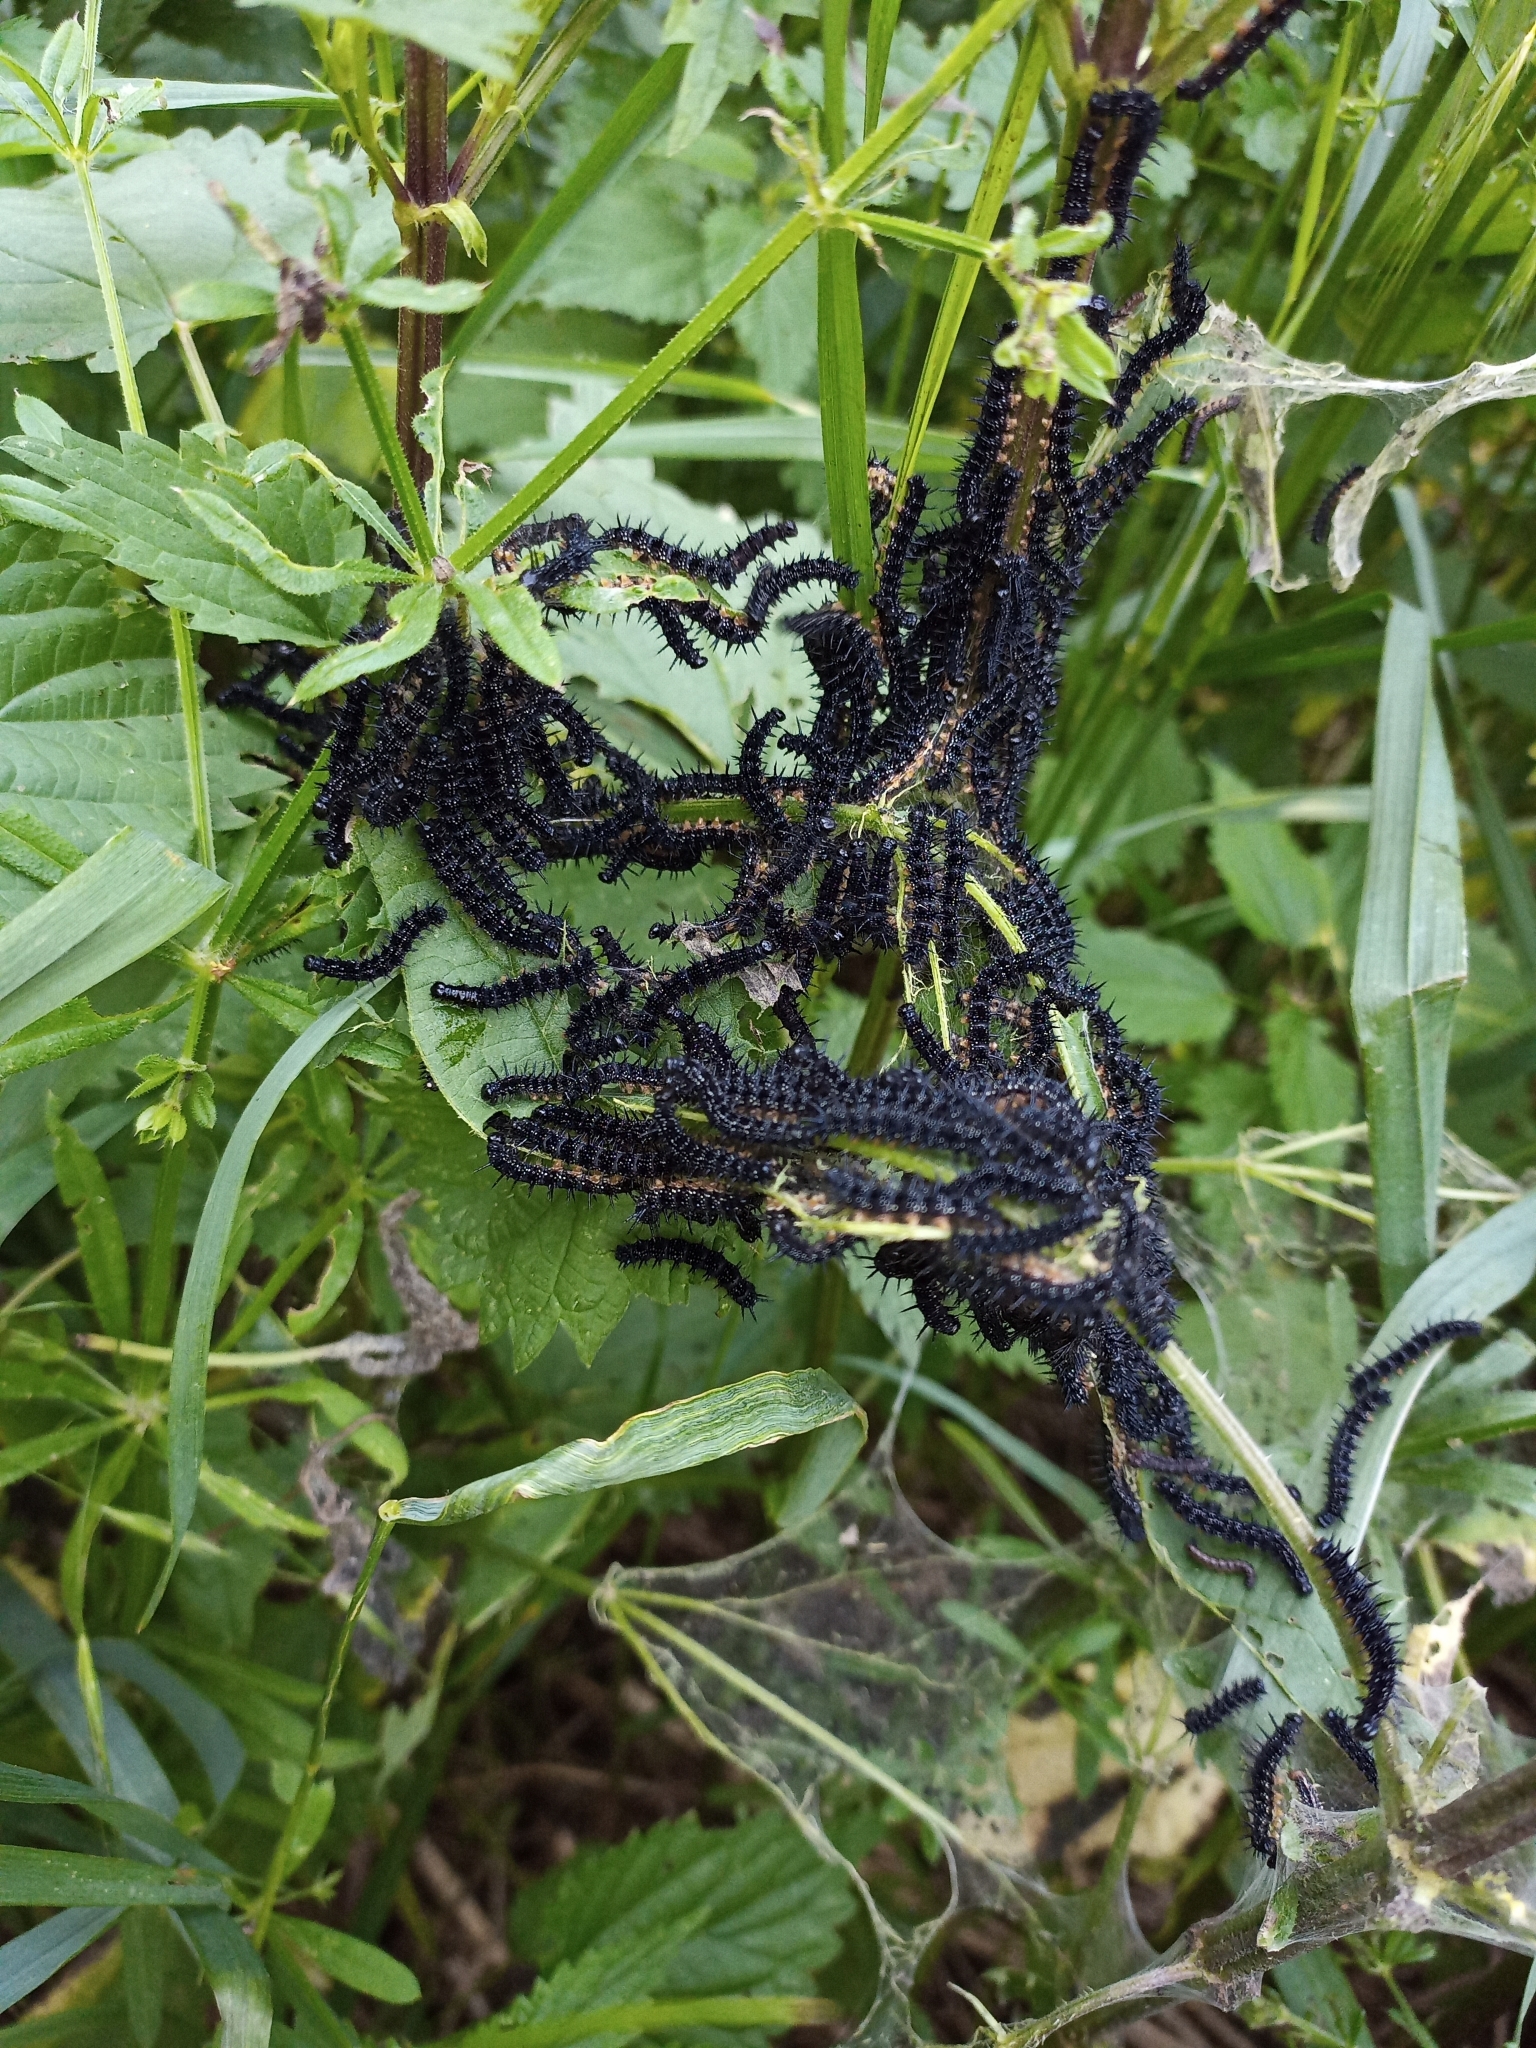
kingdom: Animalia
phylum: Arthropoda
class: Insecta
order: Lepidoptera
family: Nymphalidae
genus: Aglais
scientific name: Aglais io
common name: Peacock
